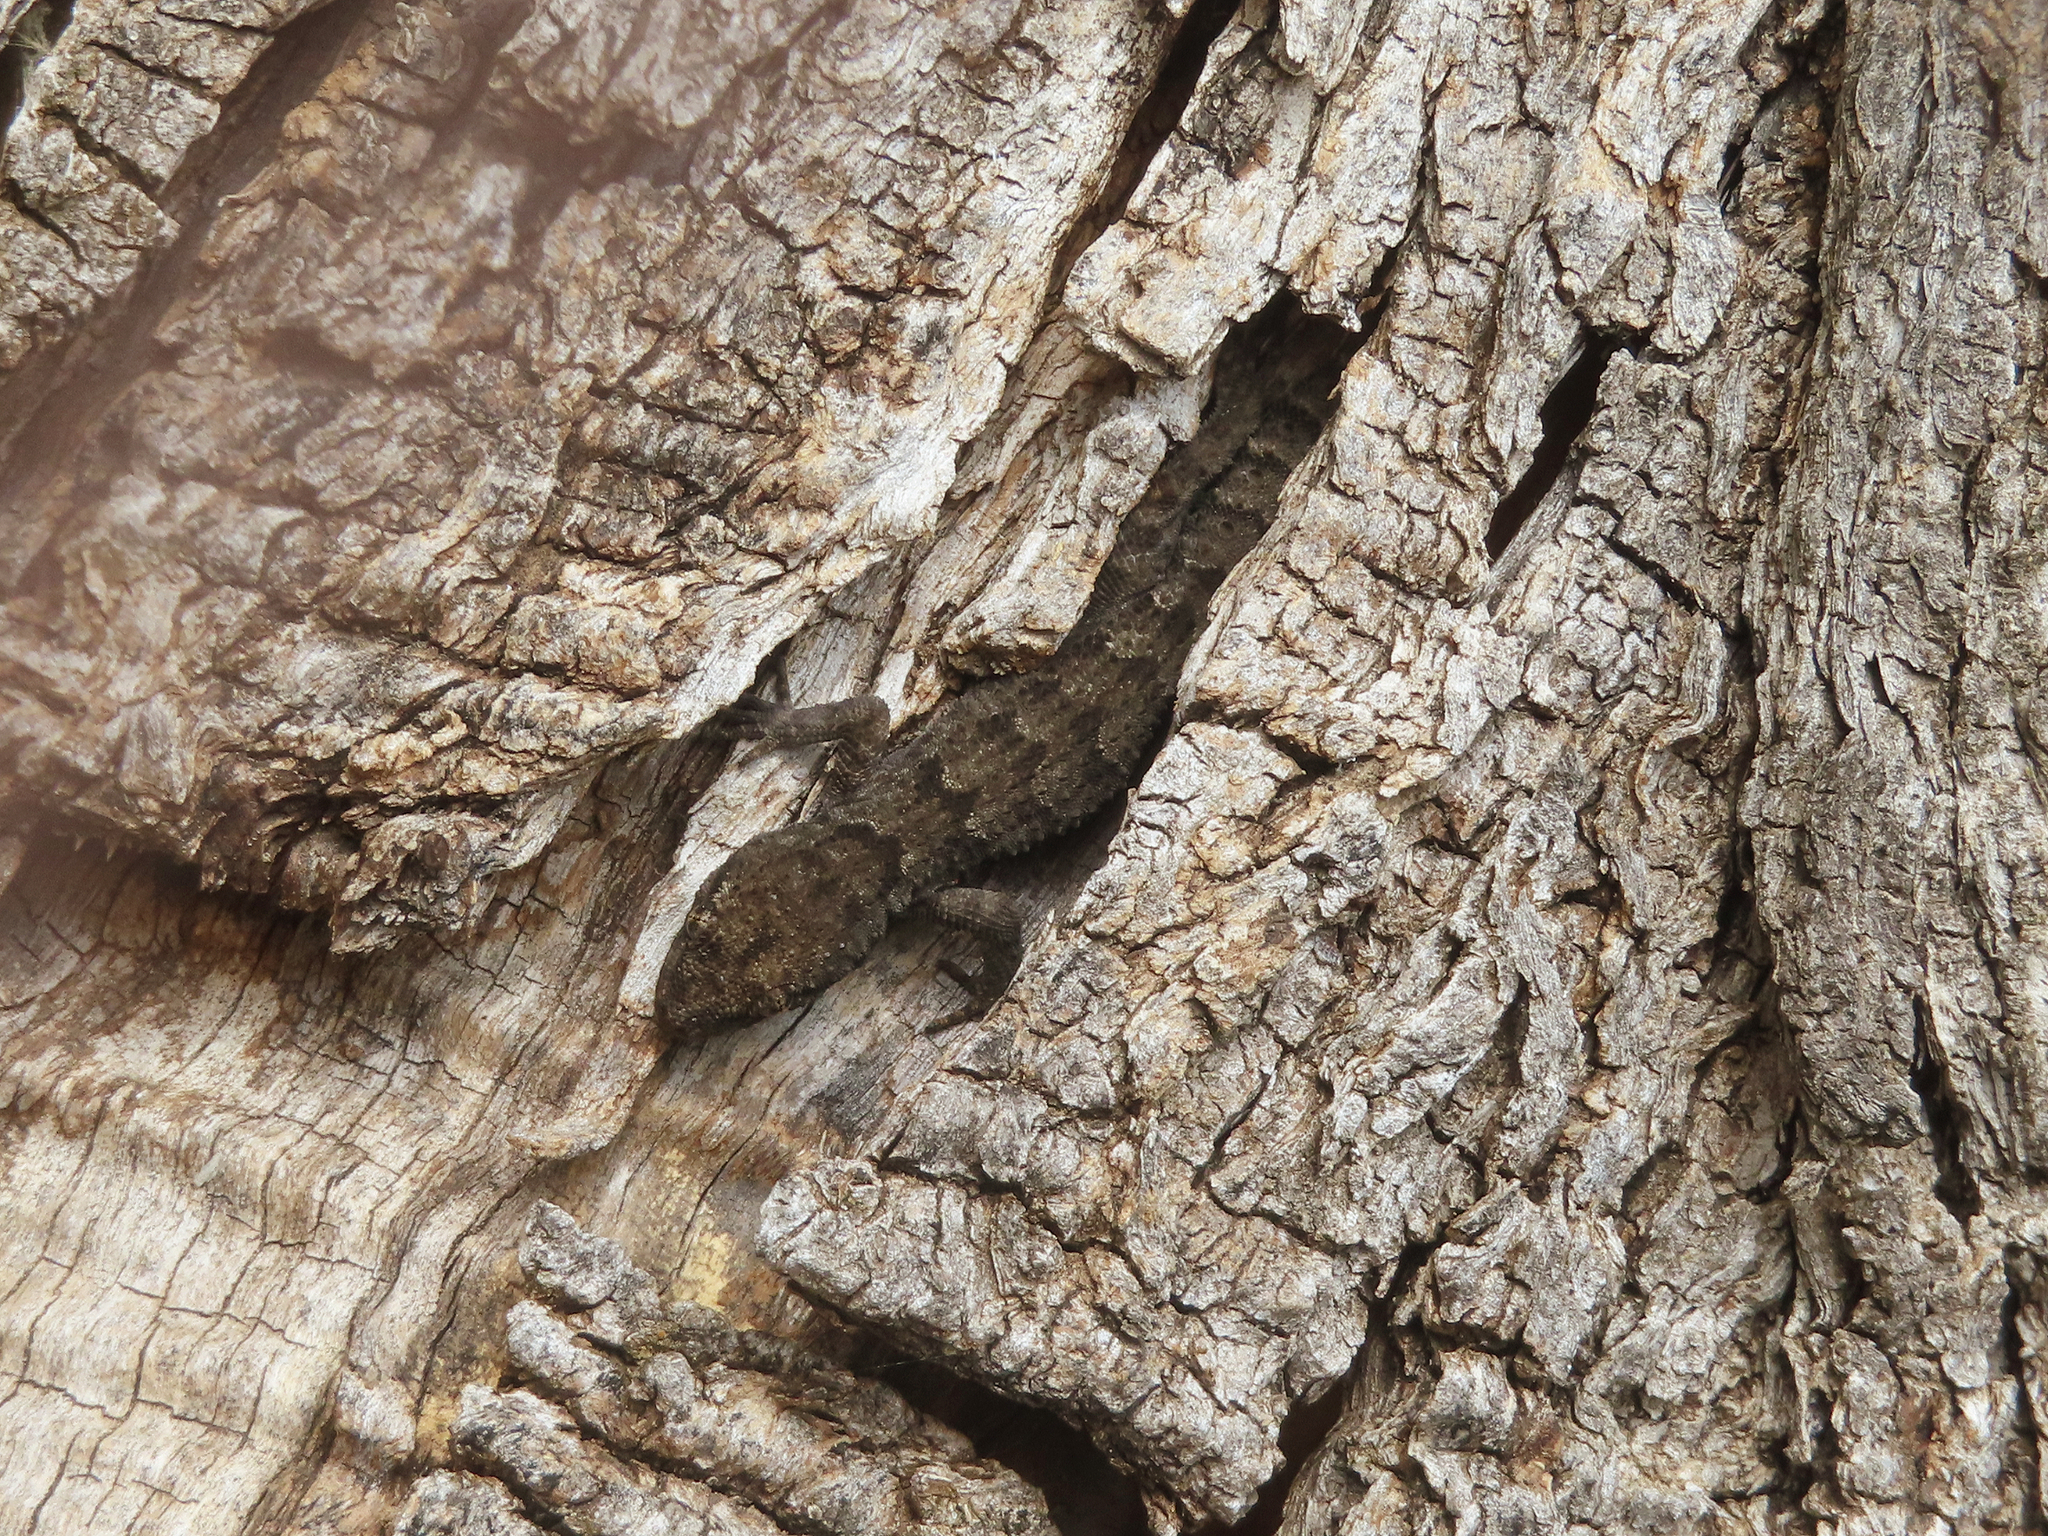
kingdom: Animalia
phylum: Chordata
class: Squamata
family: Gekkonidae
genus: Mediodactylus
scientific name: Mediodactylus kotschyi
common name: Kotschy's gecko
